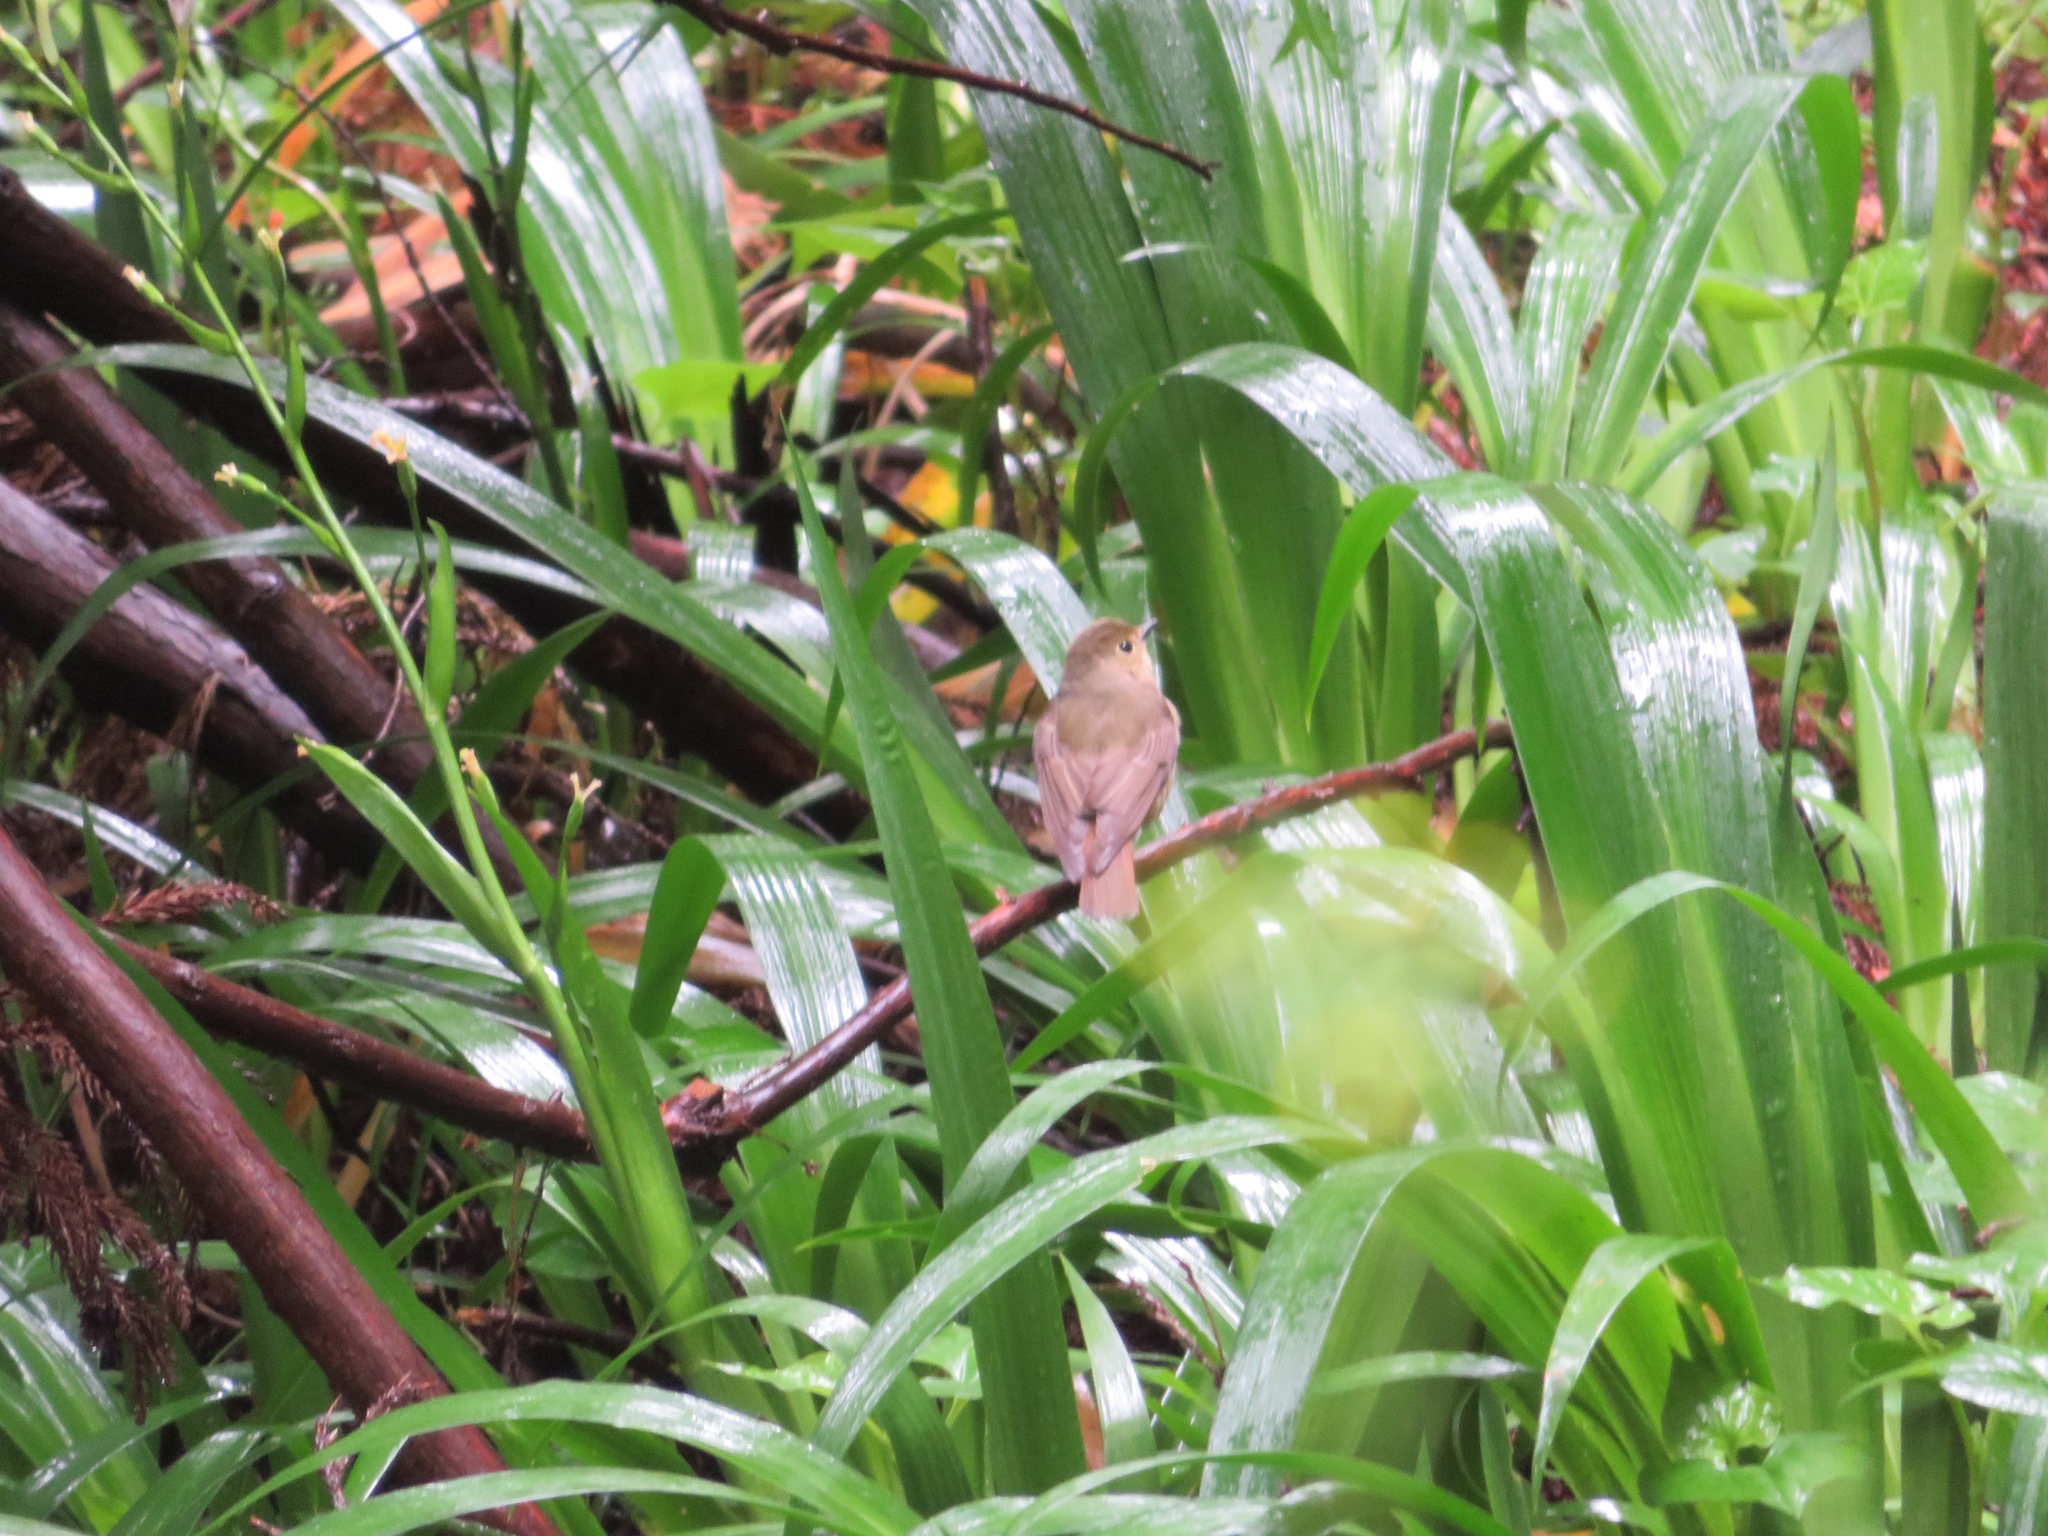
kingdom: Animalia
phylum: Chordata
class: Aves
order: Passeriformes
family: Muscicapidae
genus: Cyanoptila
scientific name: Cyanoptila cyanomelana
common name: Blue-and-white flycatcher
